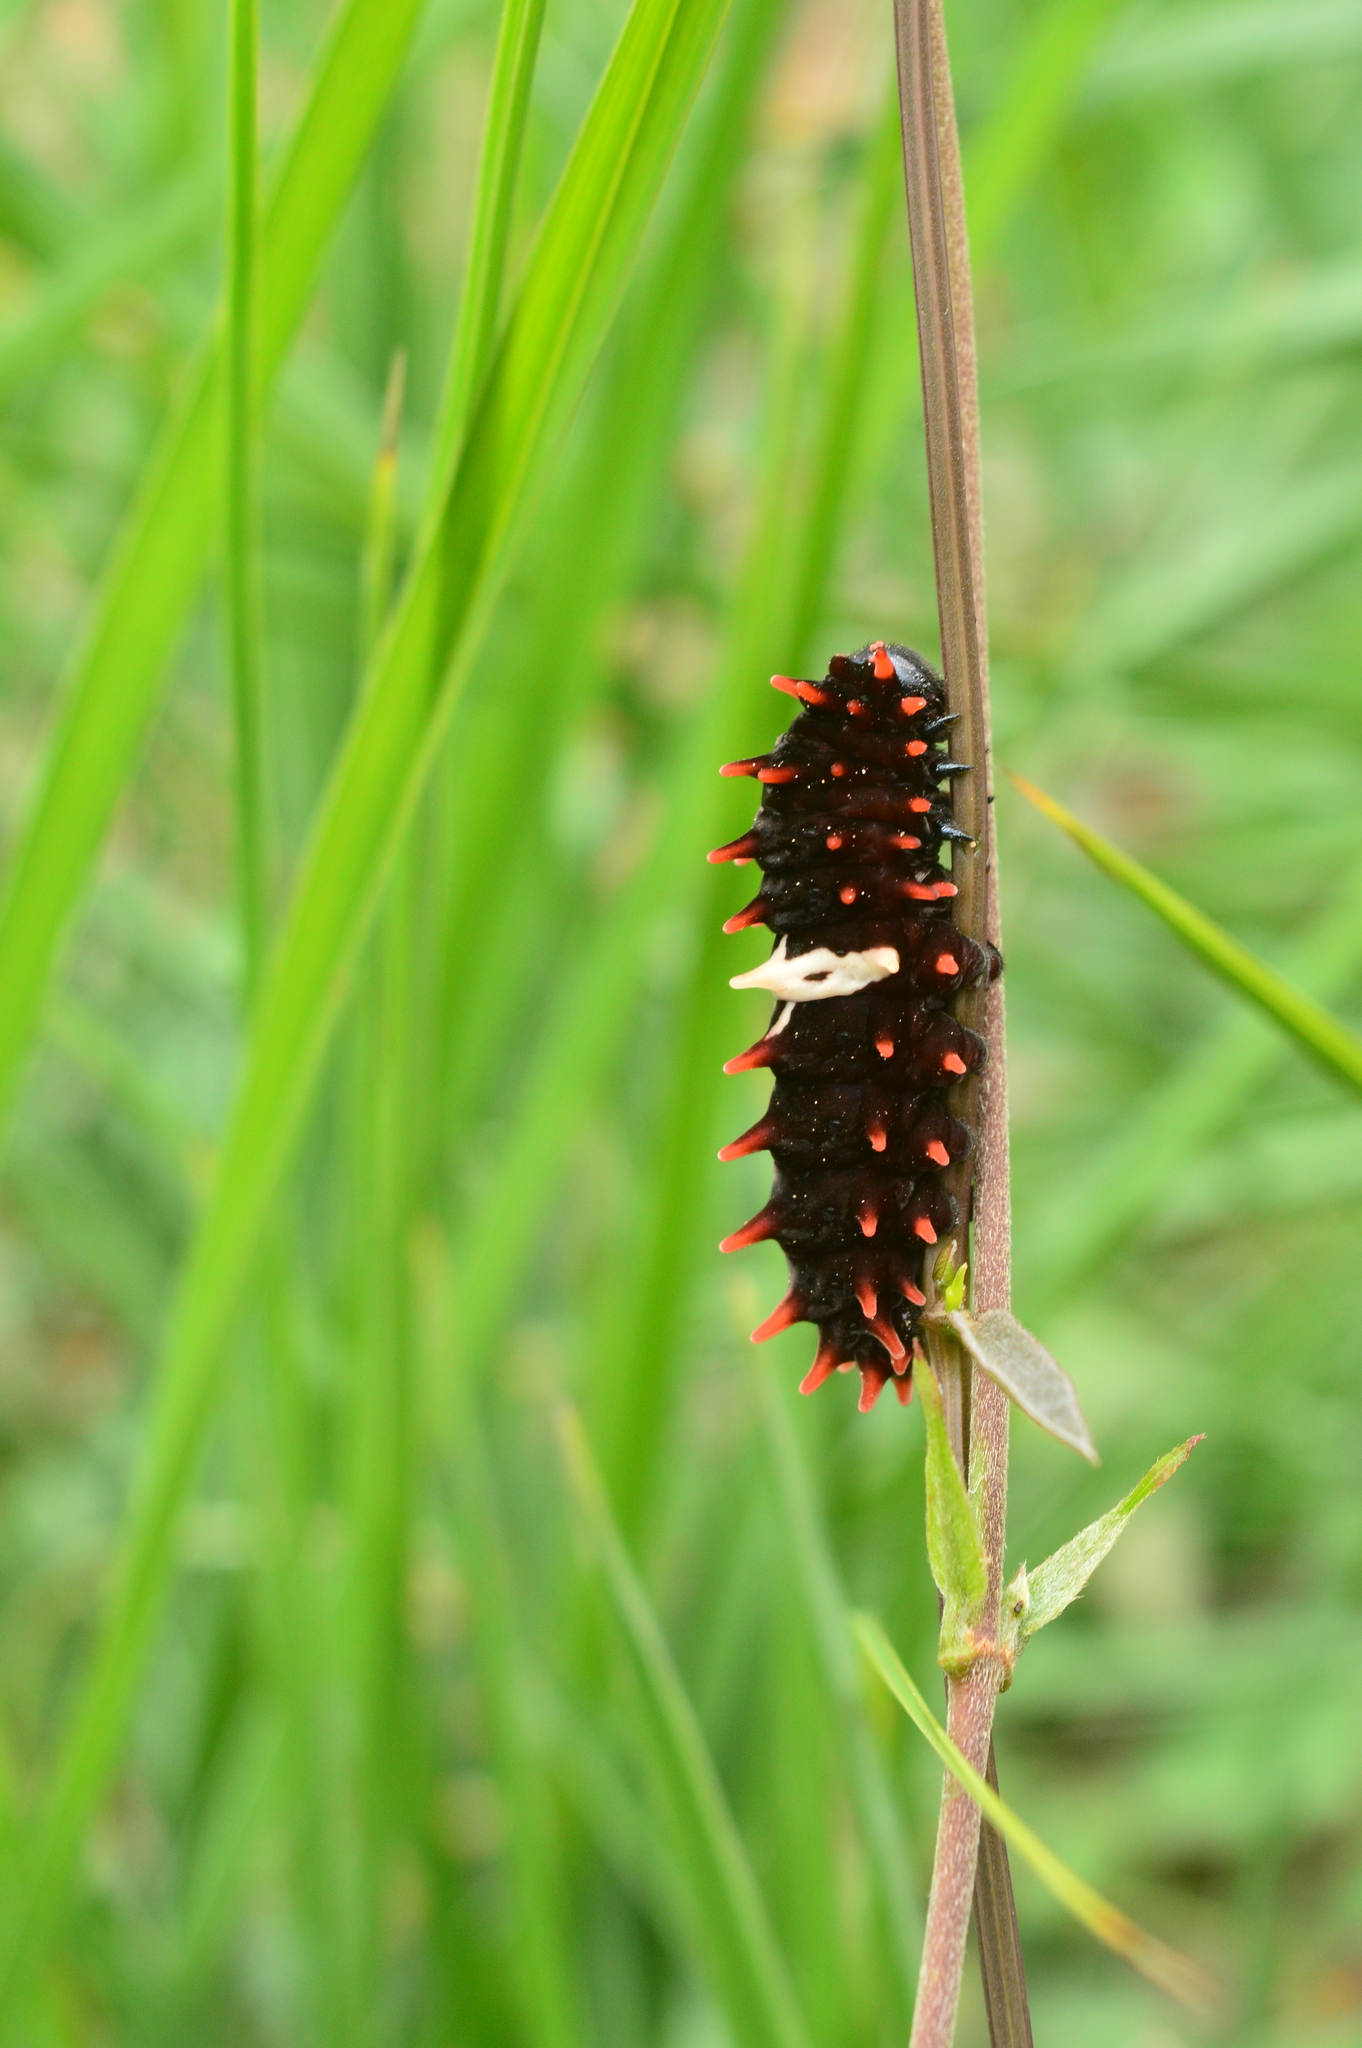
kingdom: Animalia
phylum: Arthropoda
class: Insecta
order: Lepidoptera
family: Papilionidae
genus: Pachliopta
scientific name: Pachliopta aristolochiae
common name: Common rose
